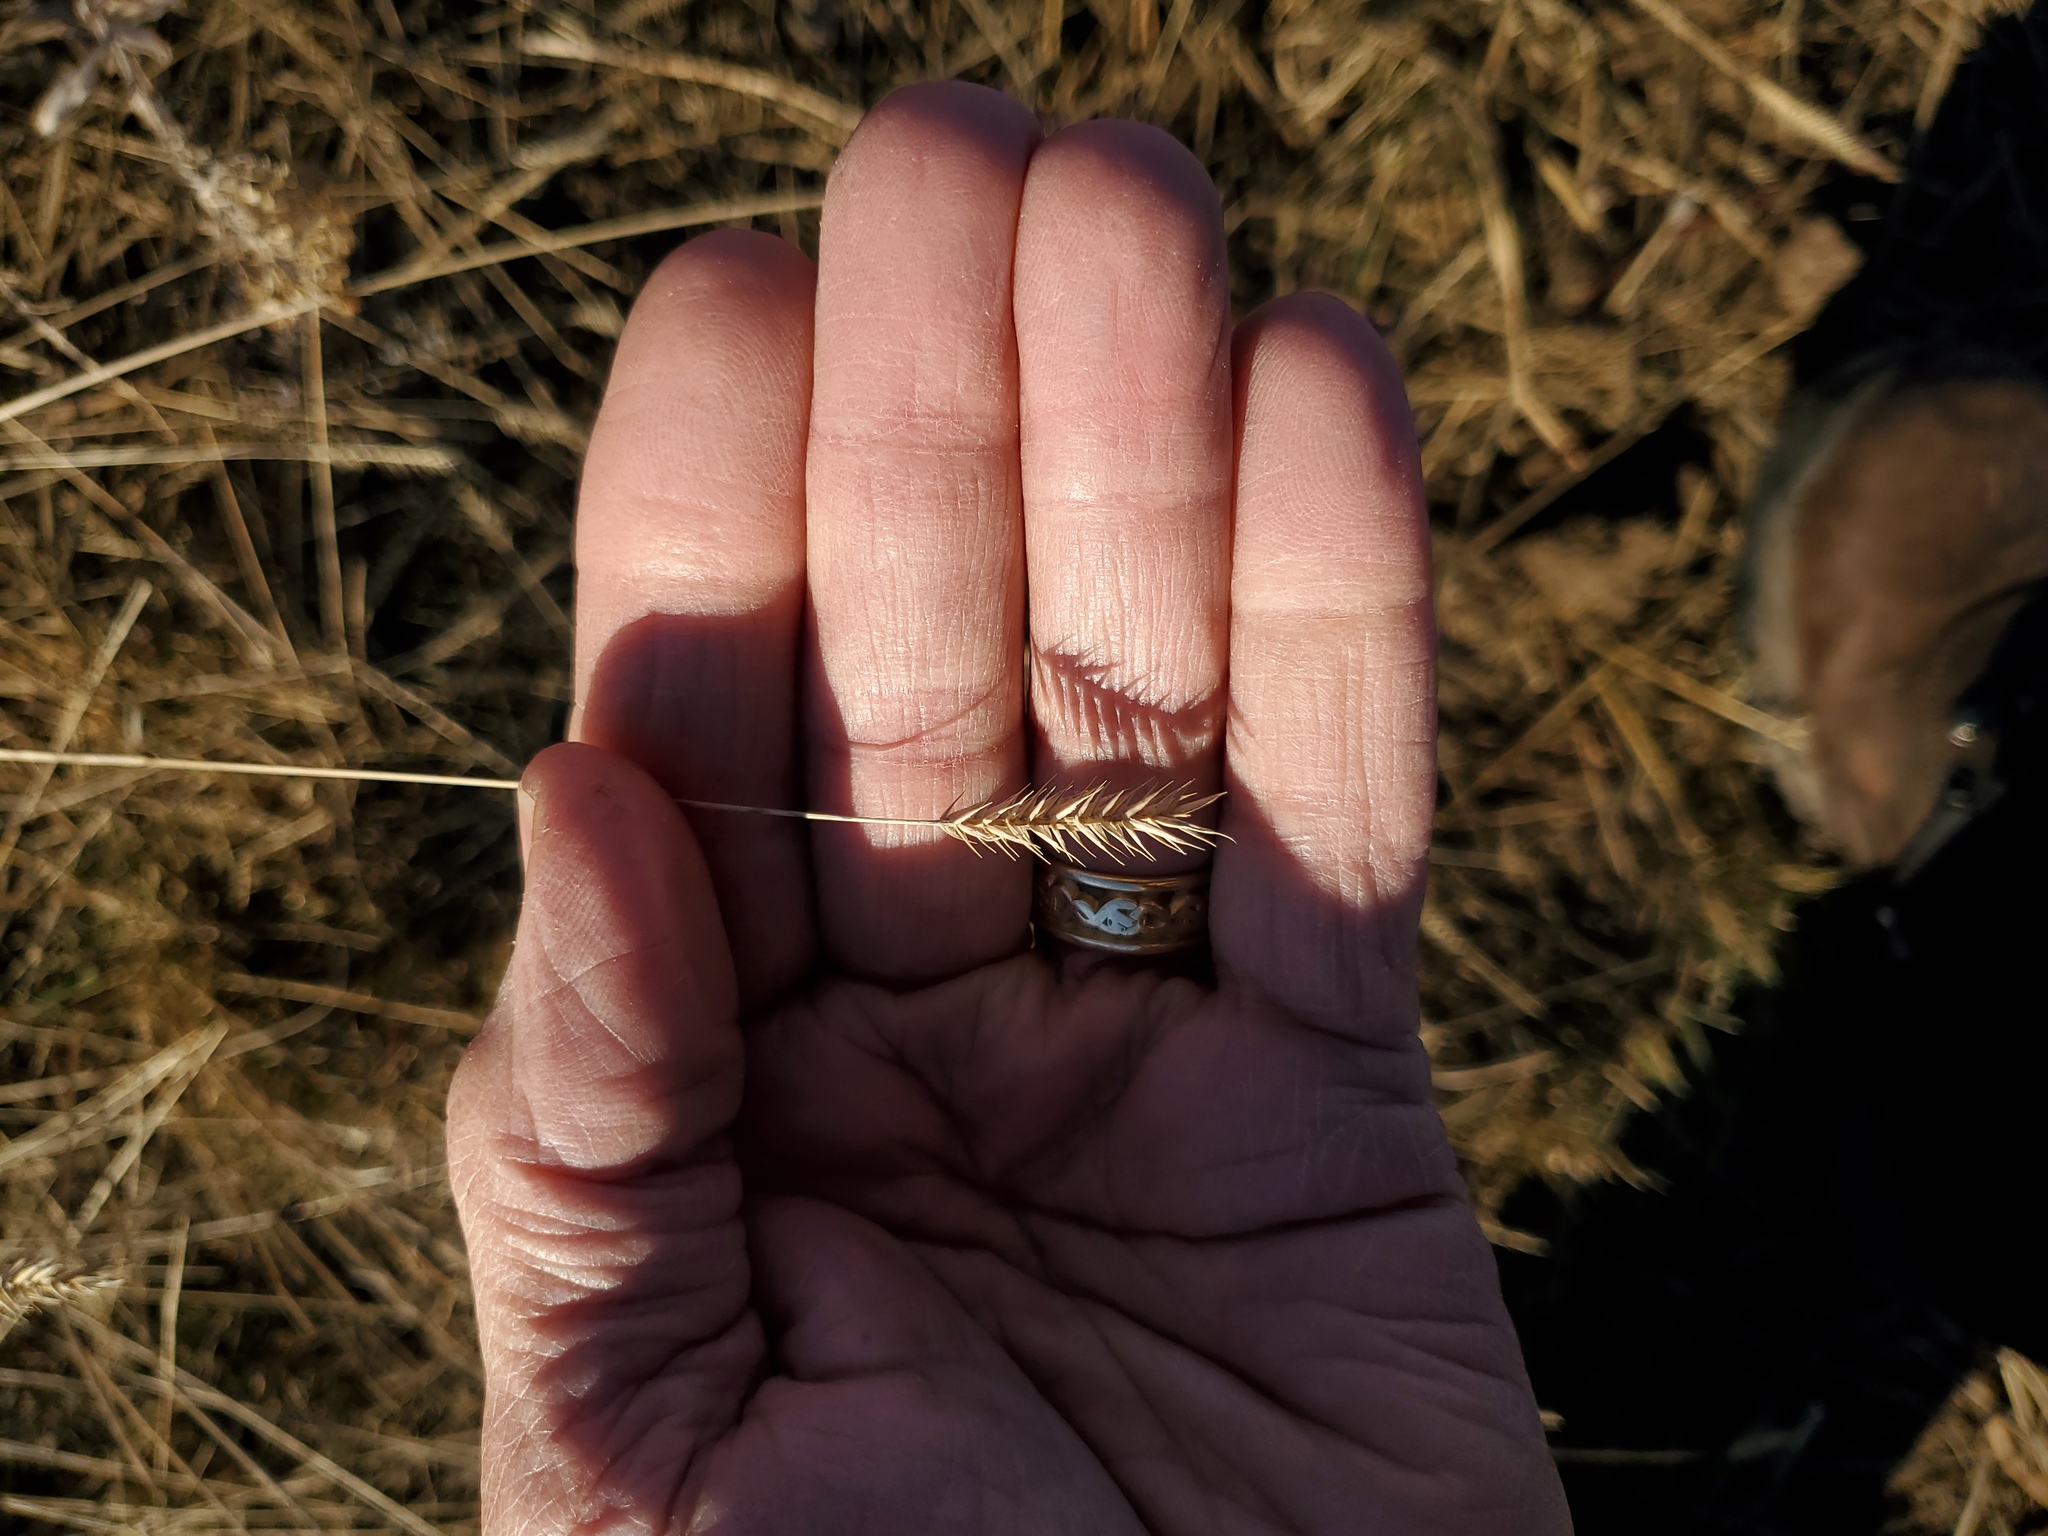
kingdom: Plantae
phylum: Tracheophyta
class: Liliopsida
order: Poales
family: Poaceae
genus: Agropyron
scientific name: Agropyron cristatum
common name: Crested wheatgrass
